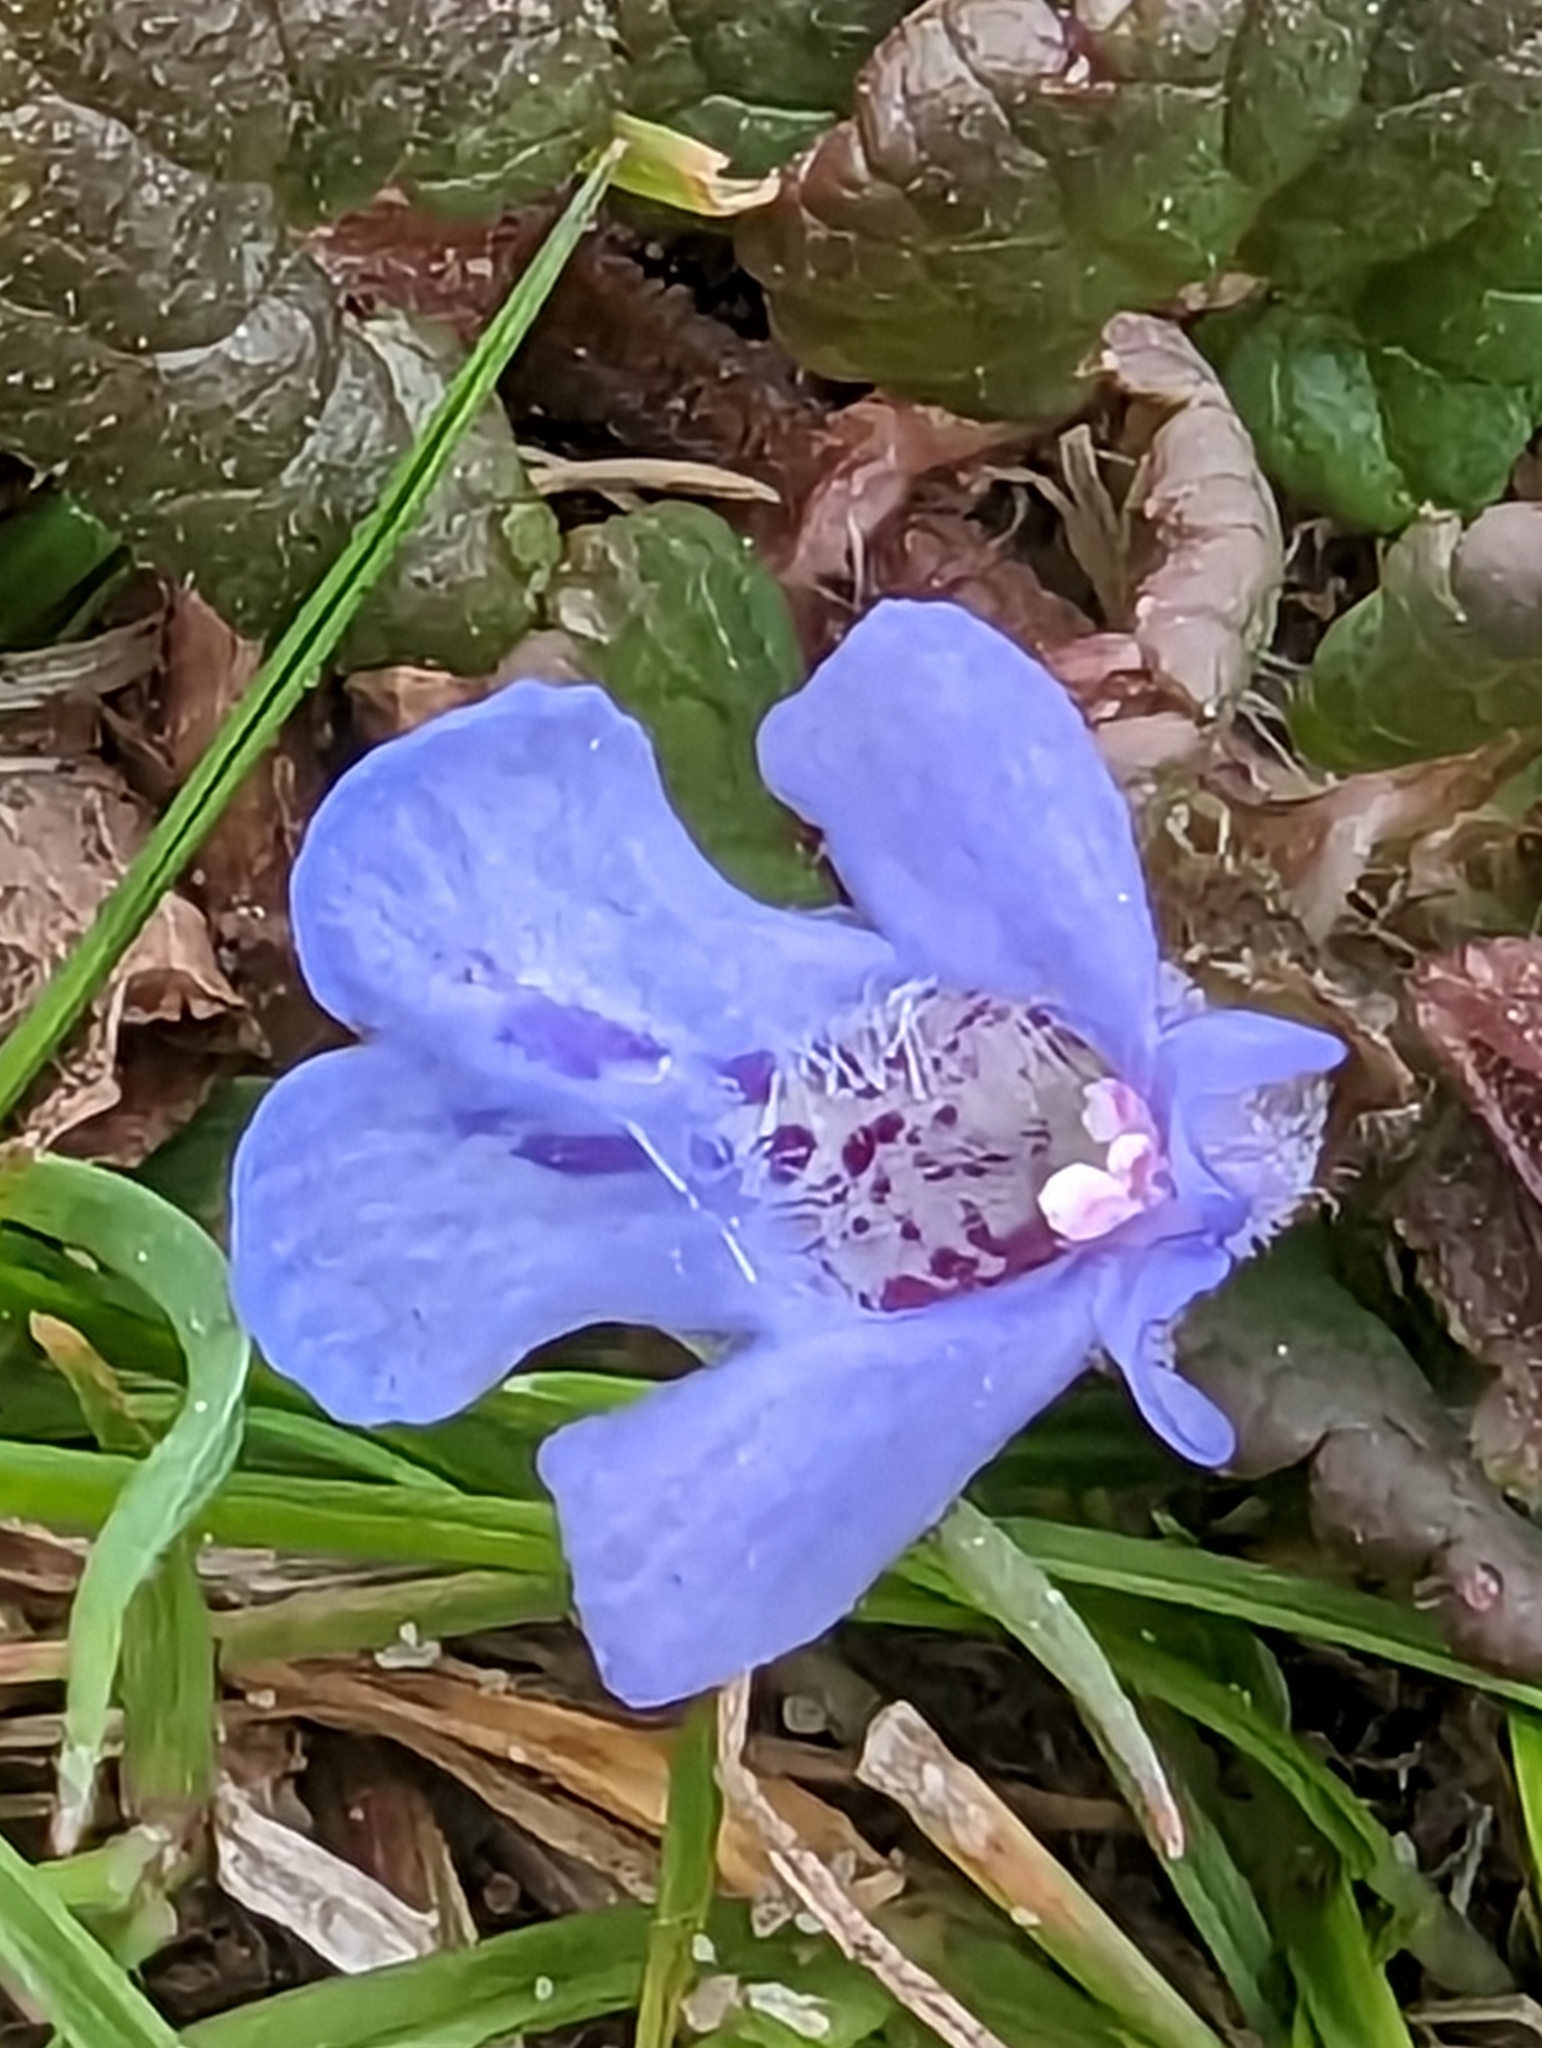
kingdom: Plantae
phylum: Tracheophyta
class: Magnoliopsida
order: Lamiales
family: Lamiaceae
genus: Glechoma
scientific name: Glechoma hederacea
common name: Ground ivy
